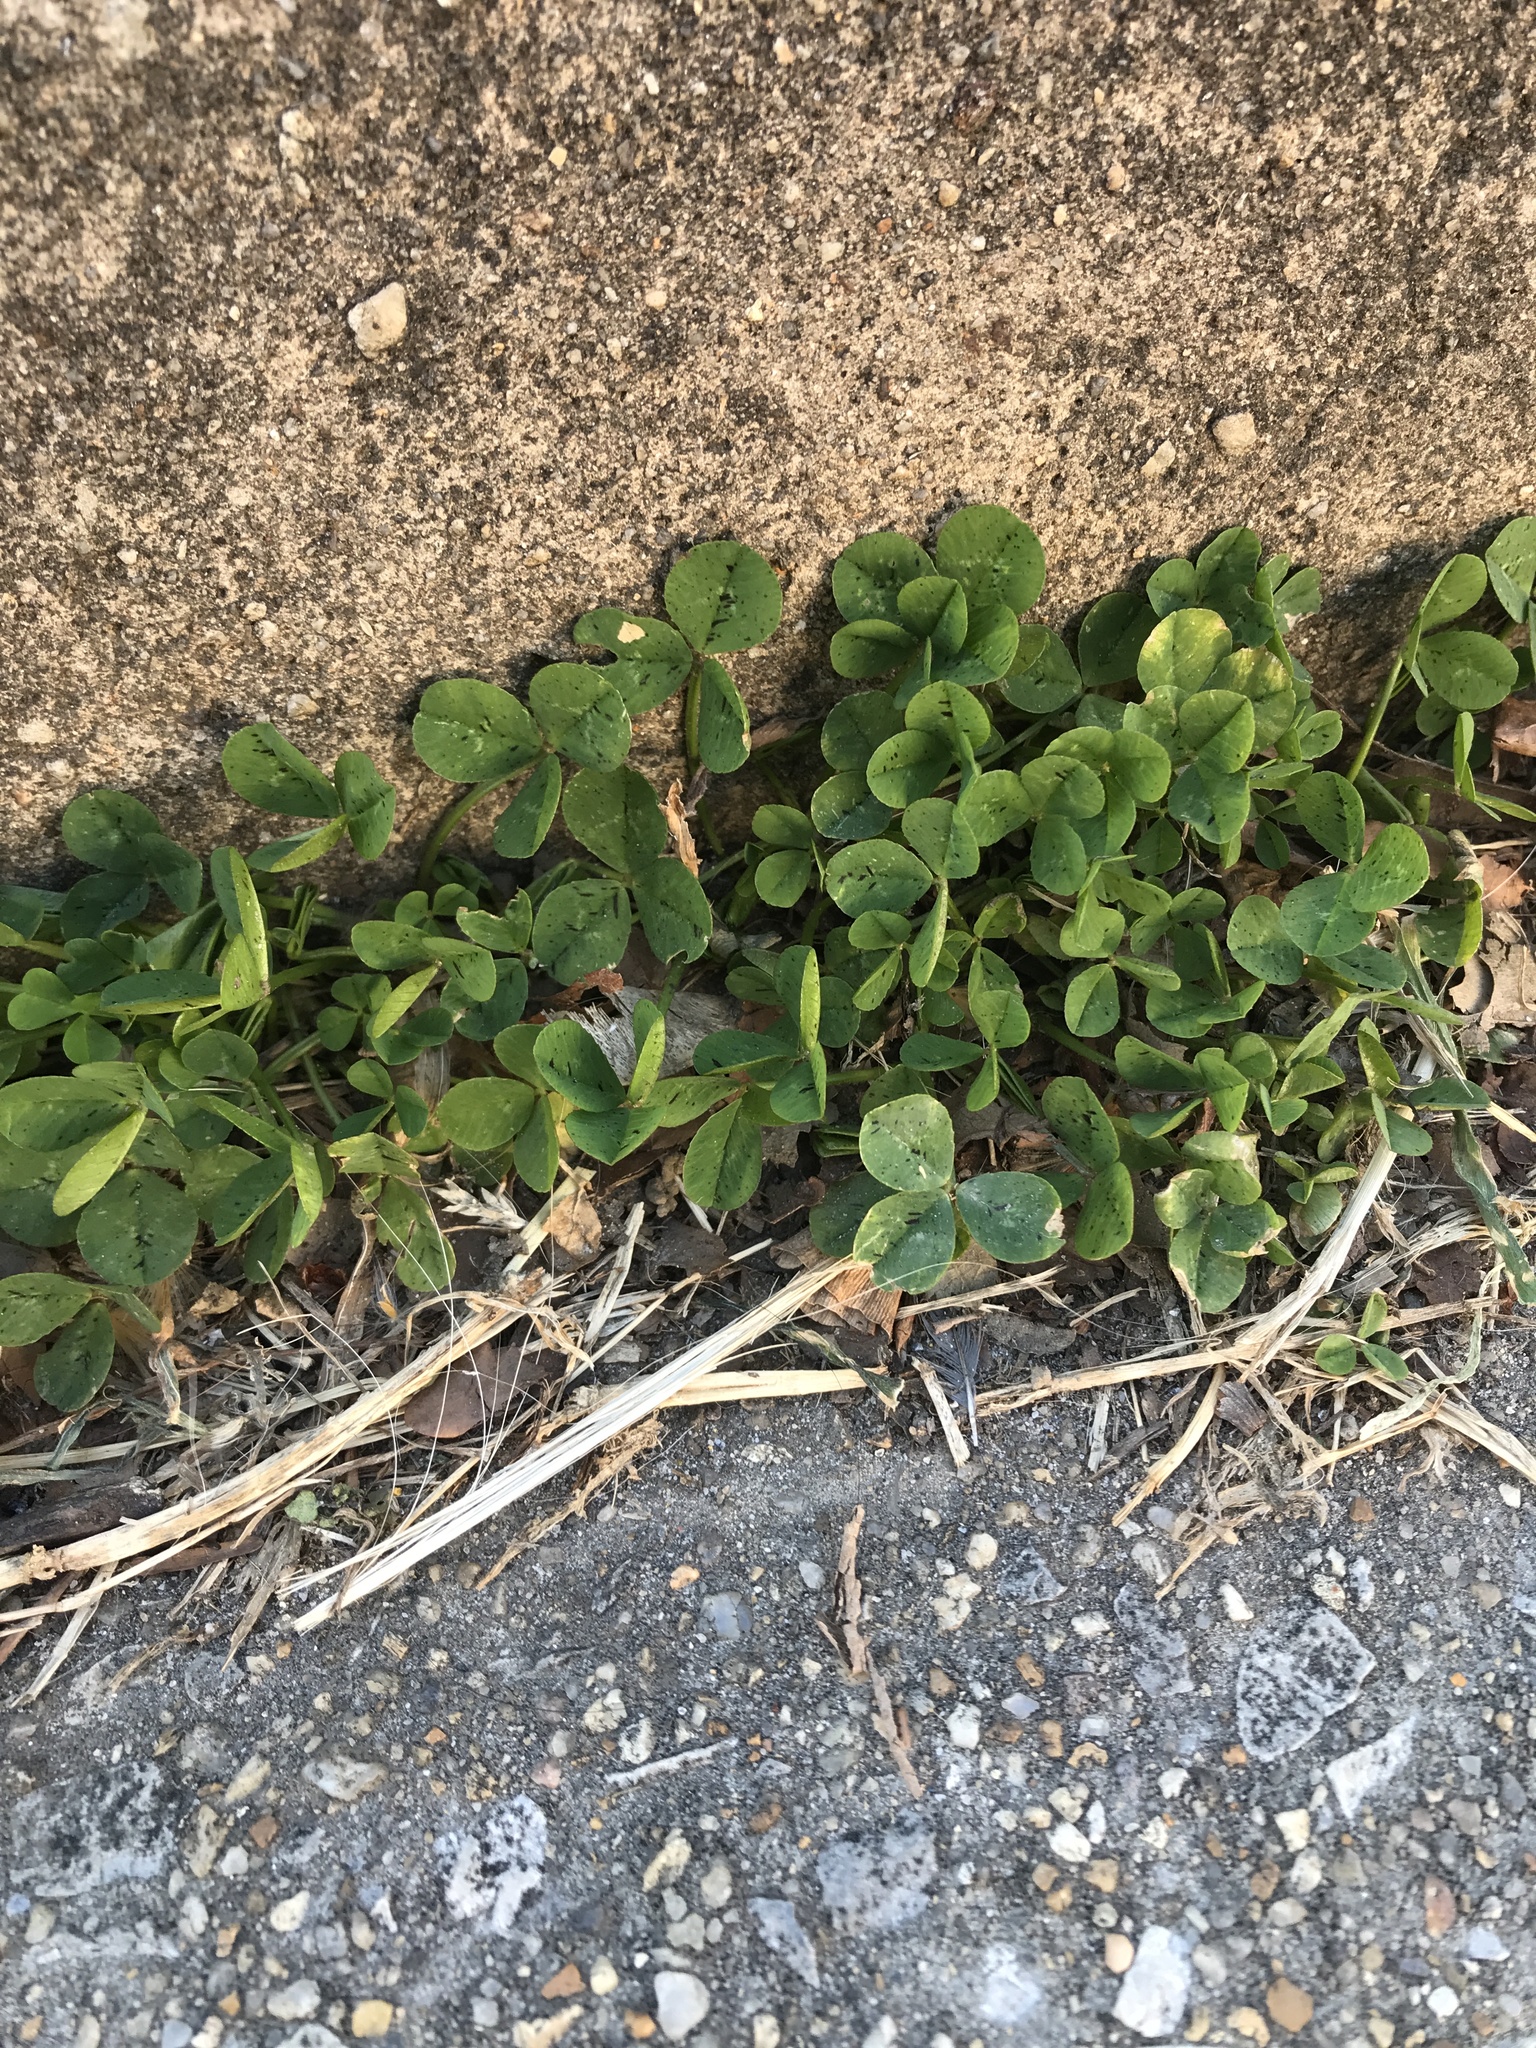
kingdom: Plantae
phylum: Tracheophyta
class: Magnoliopsida
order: Fabales
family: Fabaceae
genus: Trifolium
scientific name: Trifolium repens
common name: White clover
